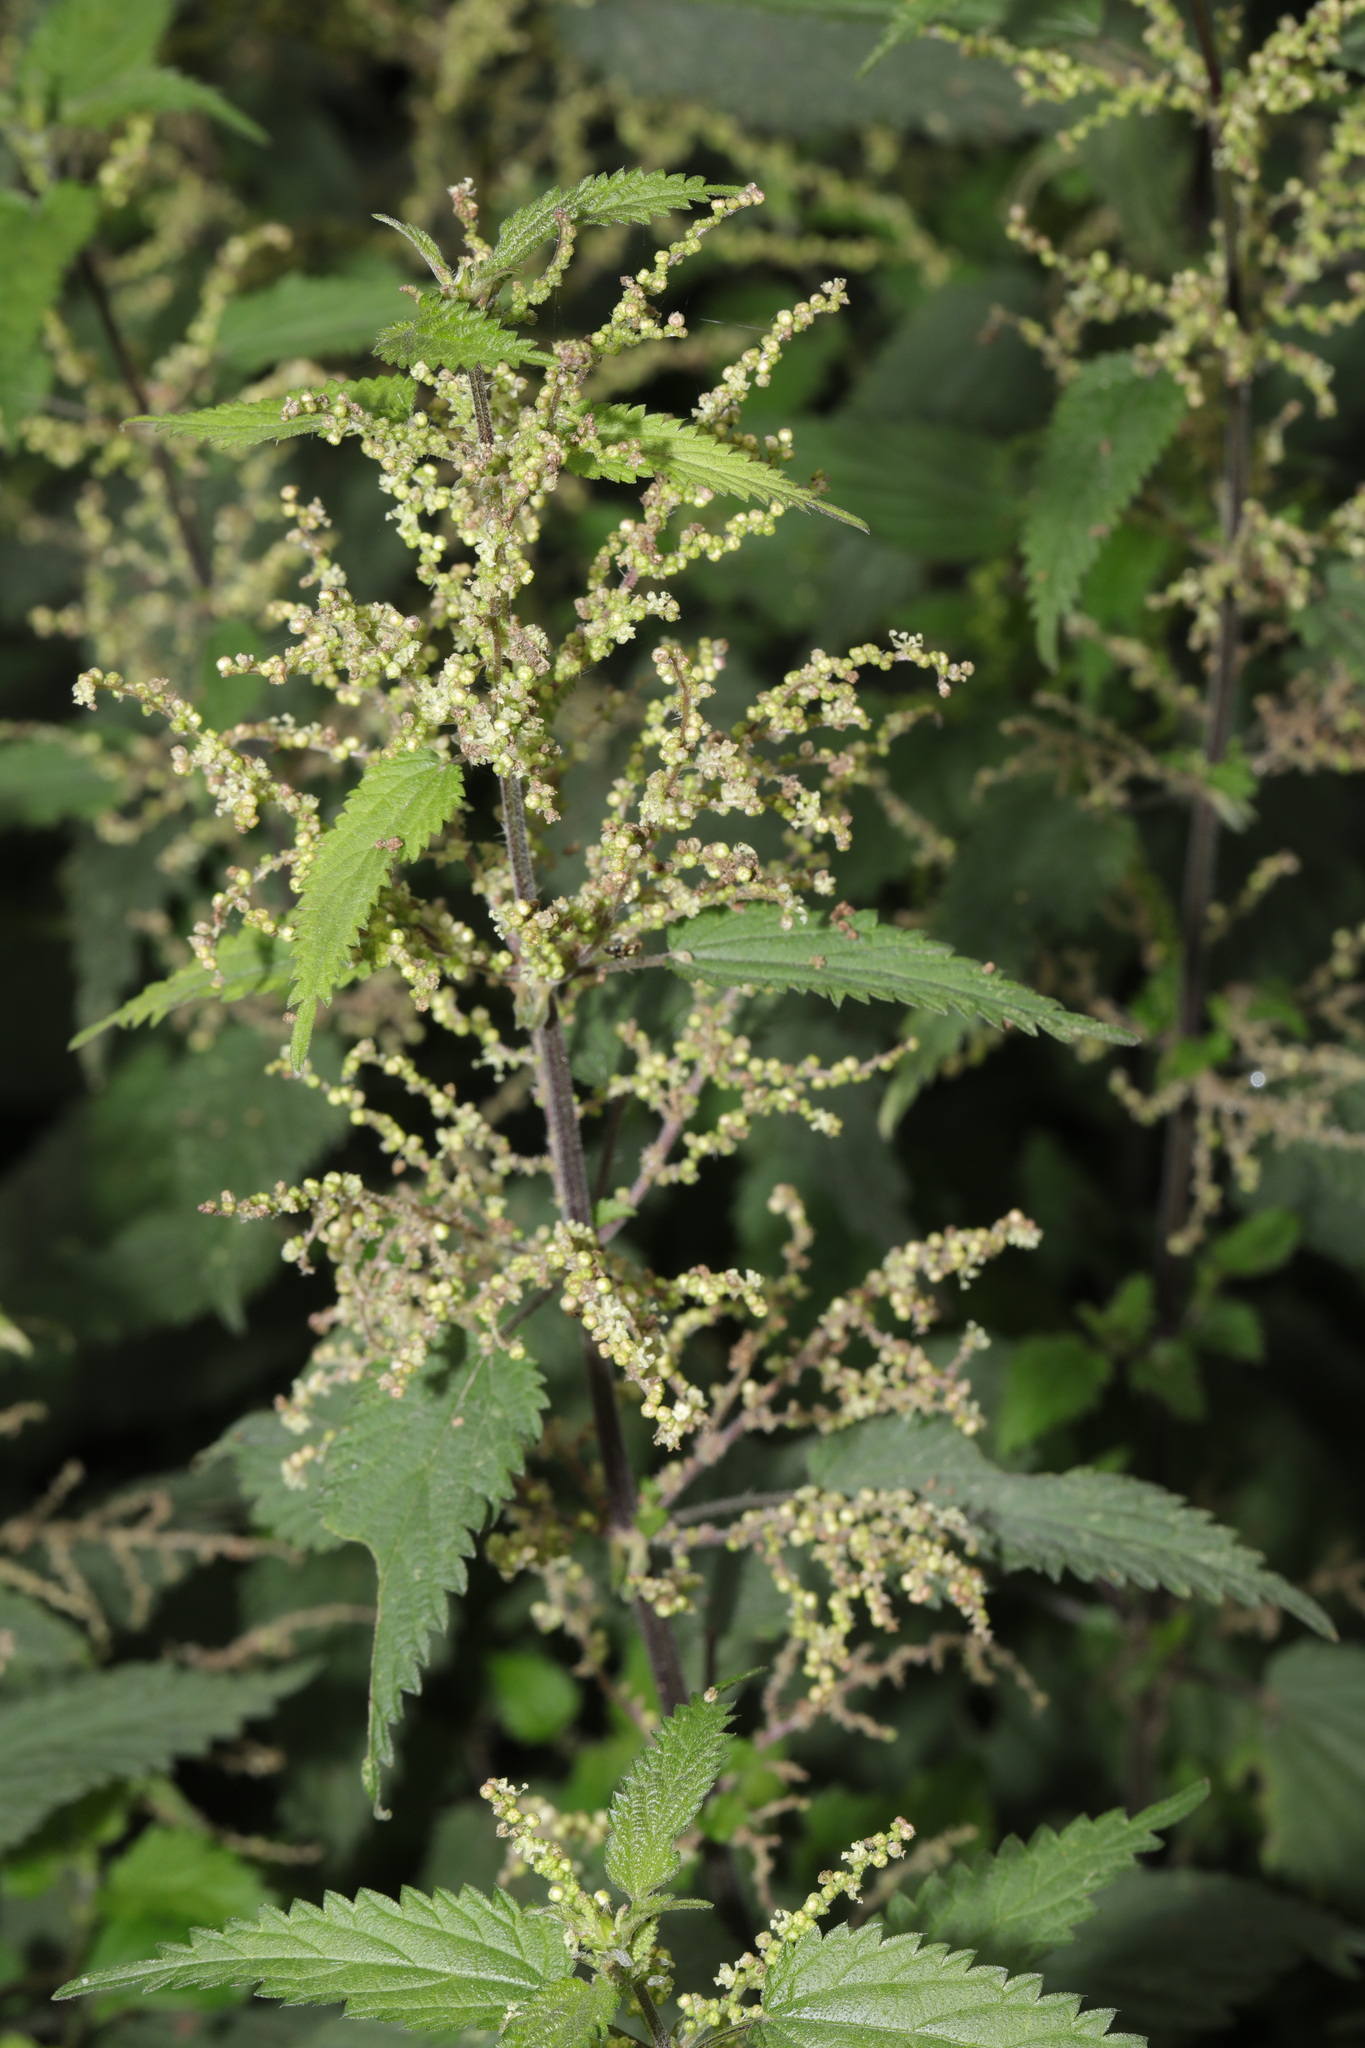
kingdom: Plantae
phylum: Tracheophyta
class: Magnoliopsida
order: Rosales
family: Urticaceae
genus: Urtica
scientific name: Urtica dioica
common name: Common nettle
